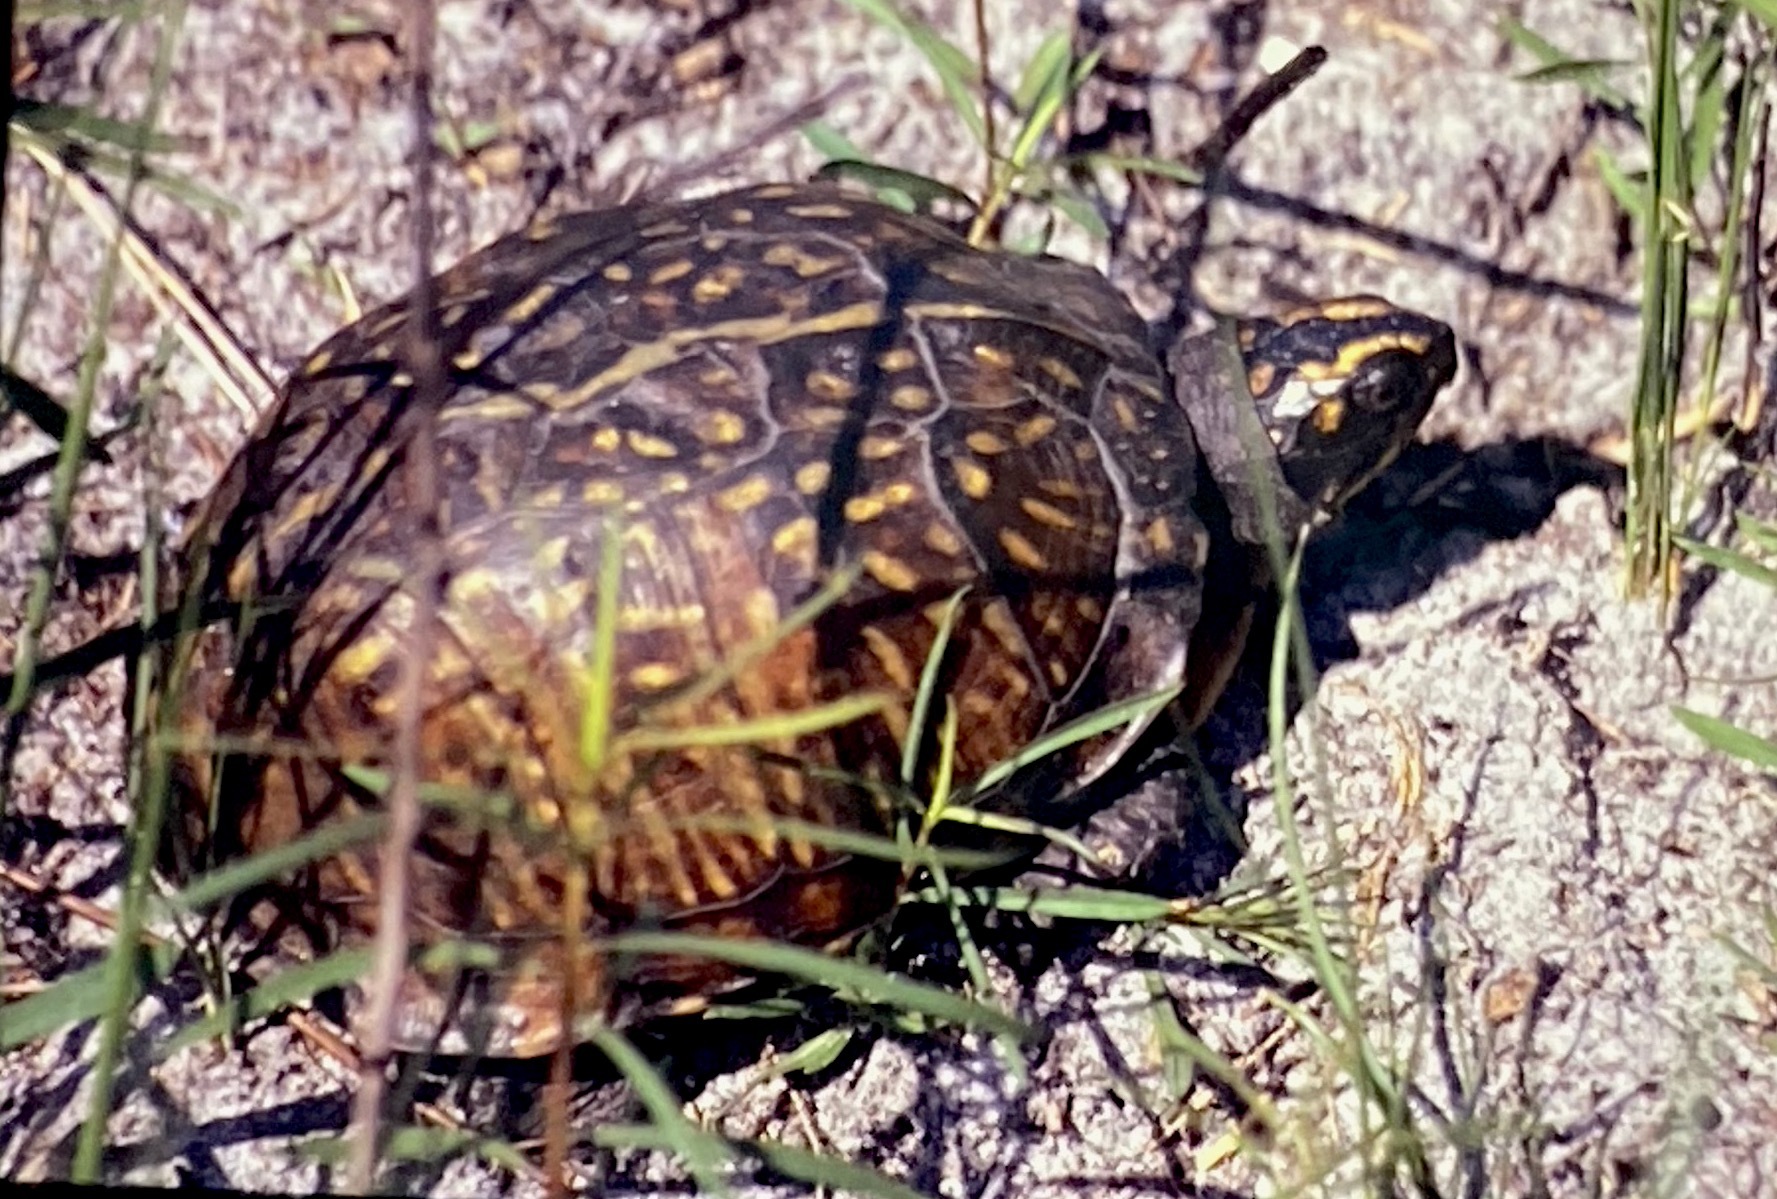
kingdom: Animalia
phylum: Chordata
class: Testudines
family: Emydidae
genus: Terrapene
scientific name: Terrapene carolina
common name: Common box turtle
